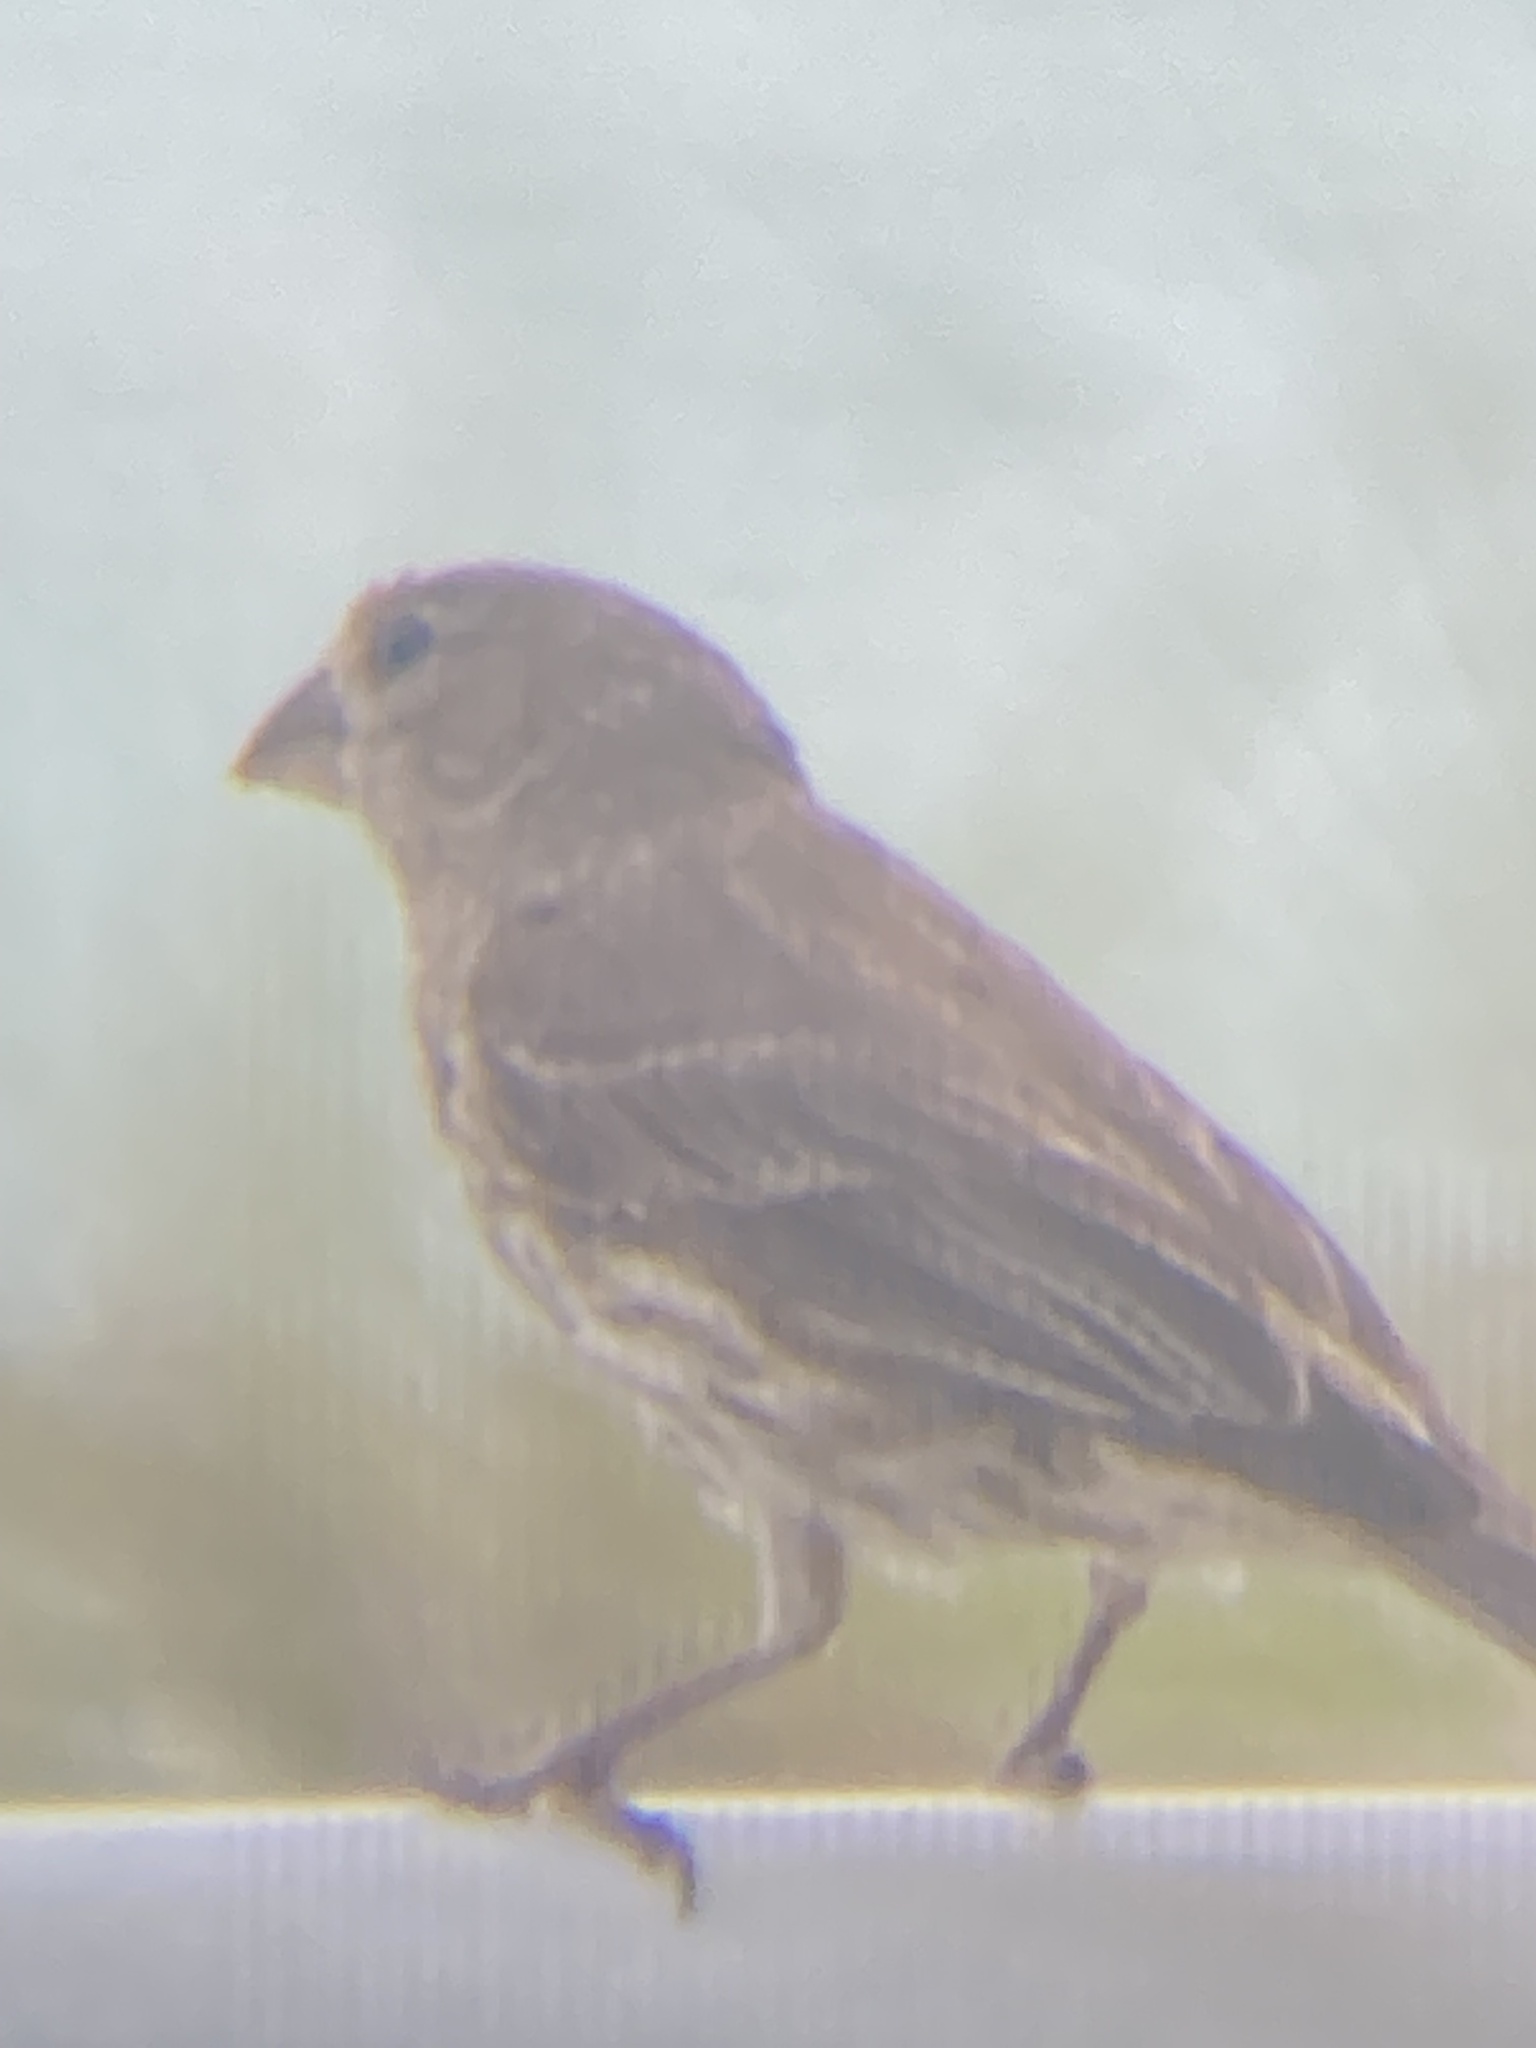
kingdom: Animalia
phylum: Chordata
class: Aves
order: Passeriformes
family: Fringillidae
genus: Haemorhous
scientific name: Haemorhous mexicanus
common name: House finch
